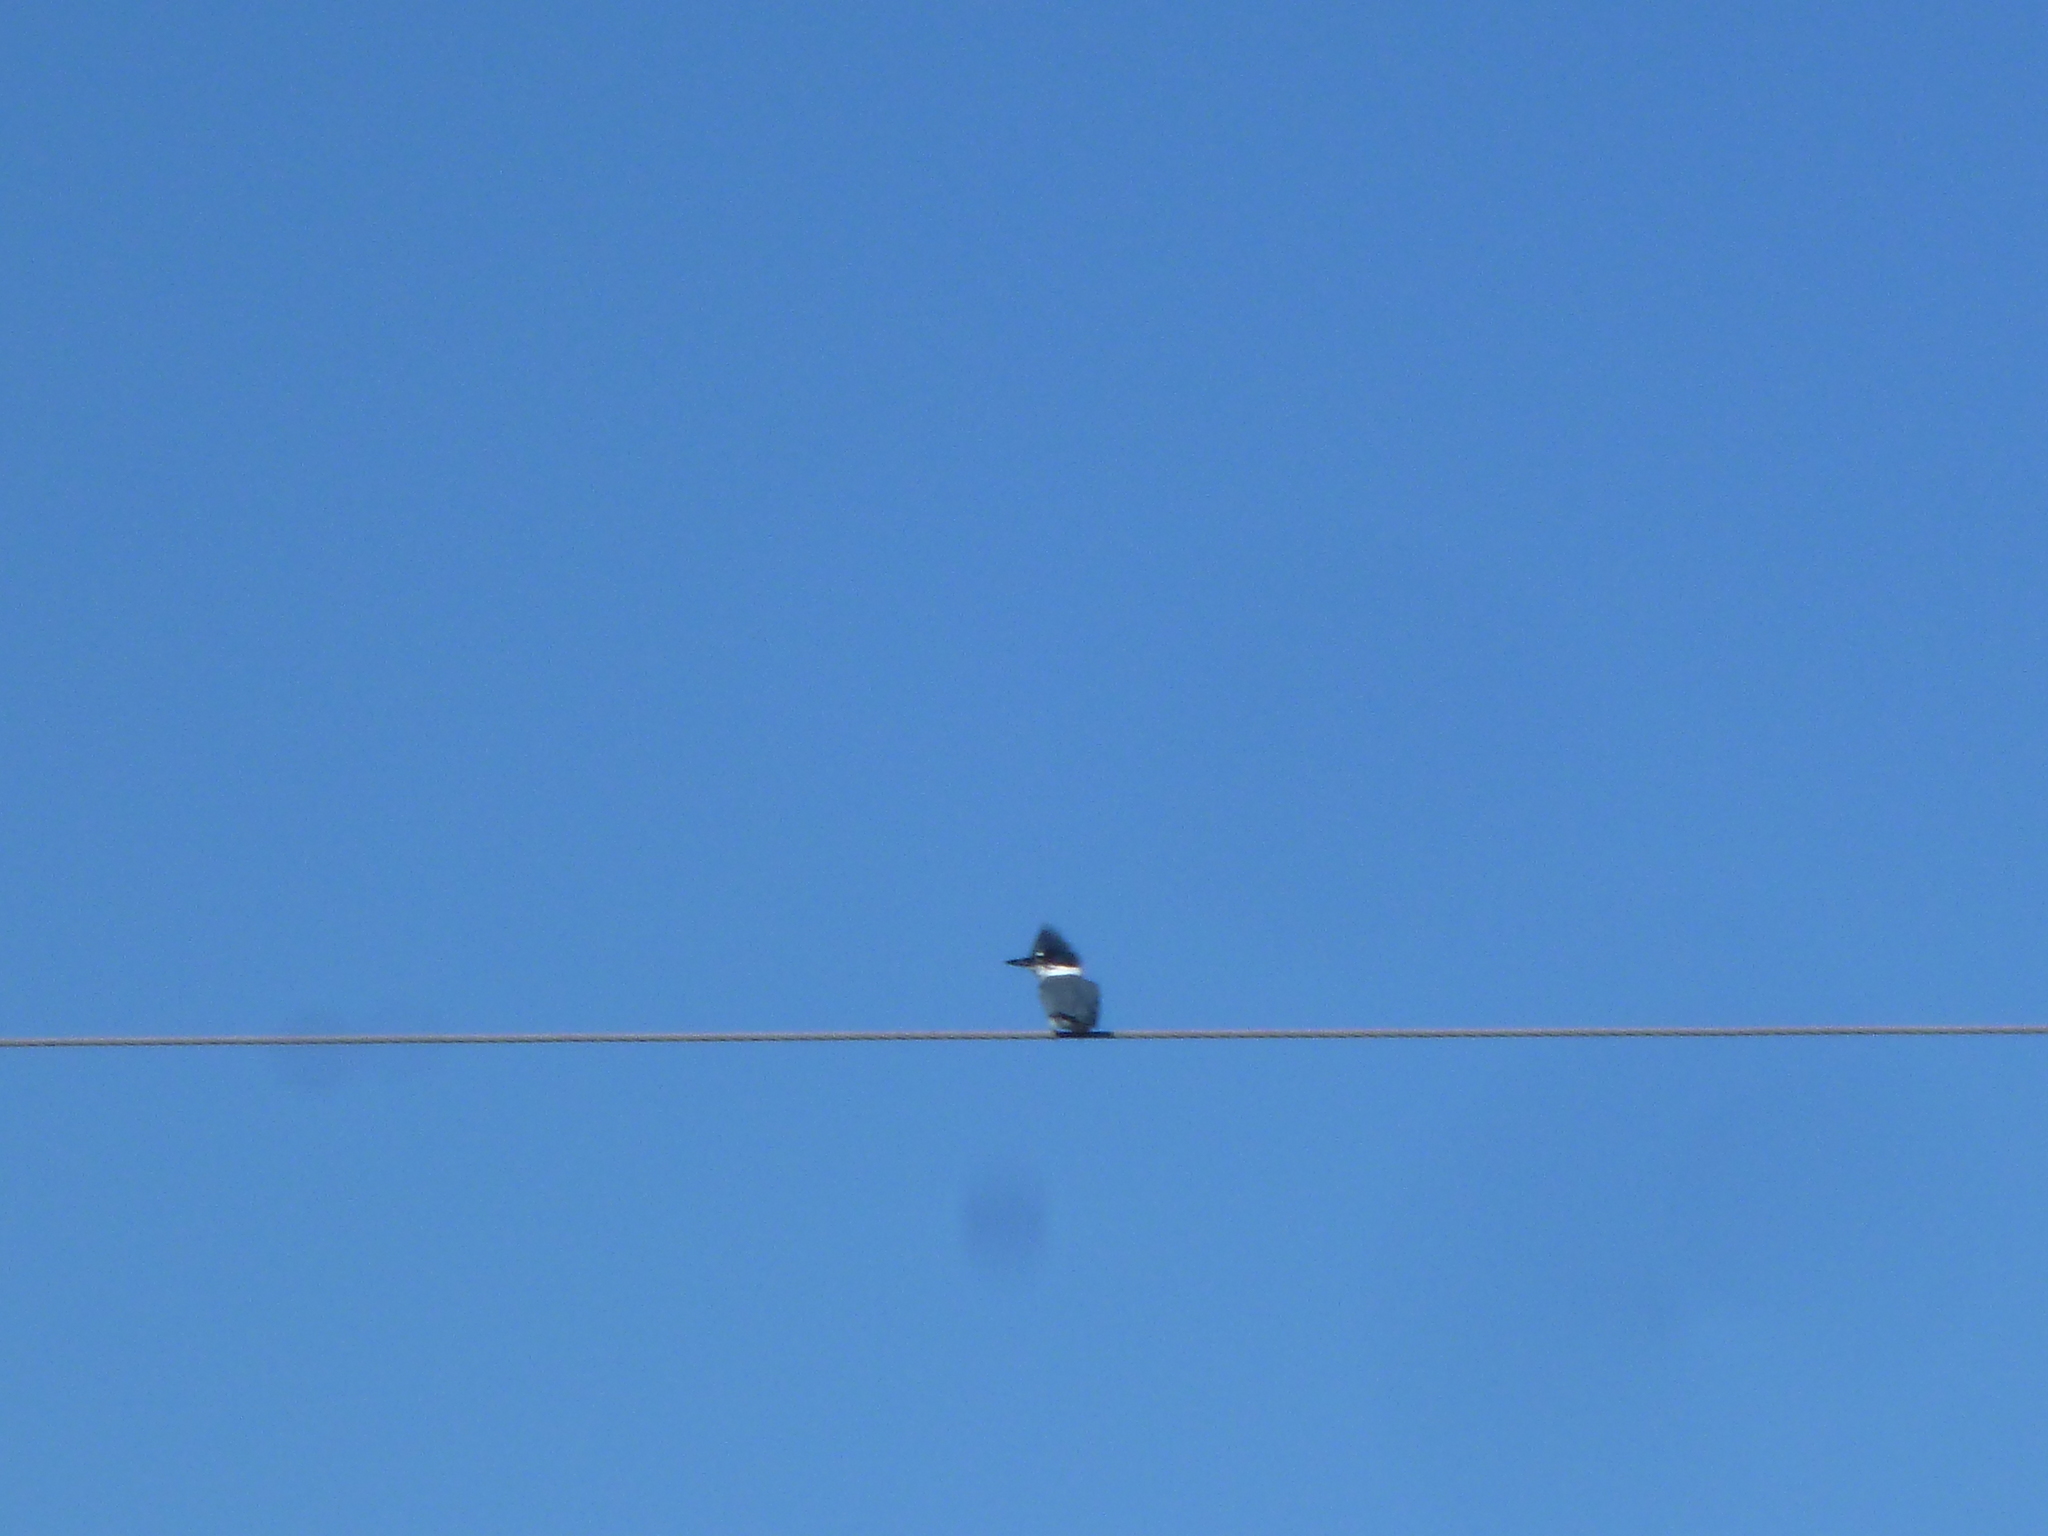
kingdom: Animalia
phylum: Chordata
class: Aves
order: Coraciiformes
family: Alcedinidae
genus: Megaceryle
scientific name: Megaceryle alcyon
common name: Belted kingfisher
